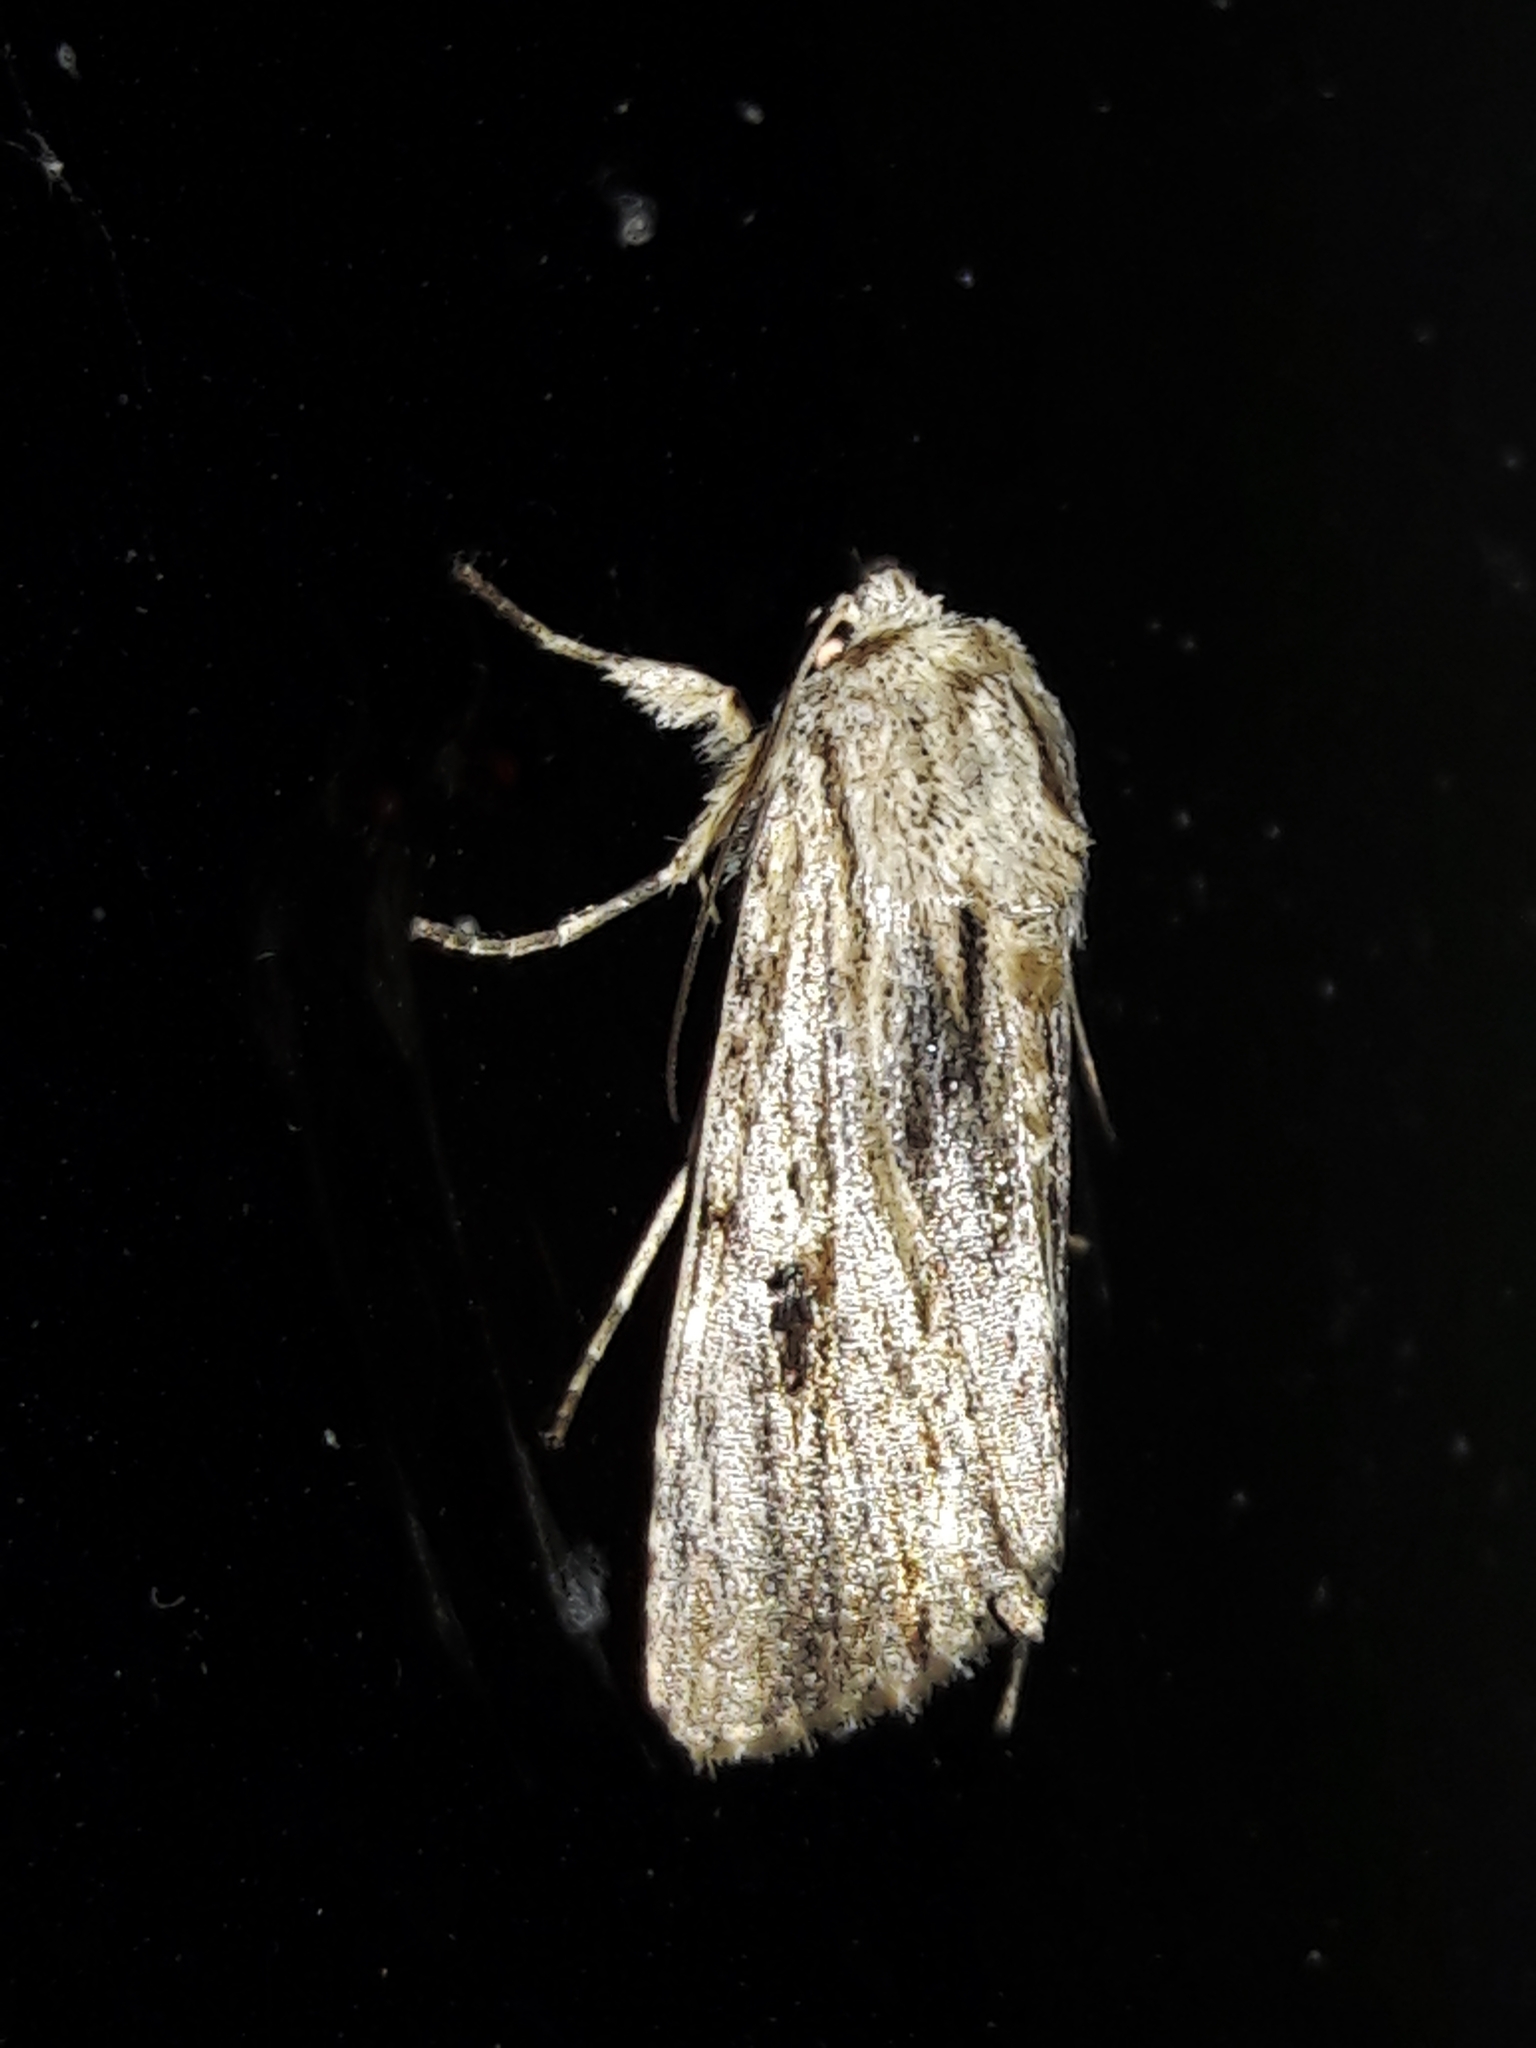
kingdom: Animalia
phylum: Arthropoda
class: Insecta
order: Lepidoptera
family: Noctuidae
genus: Spodoptera
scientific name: Spodoptera eridania
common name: Southern army worm
